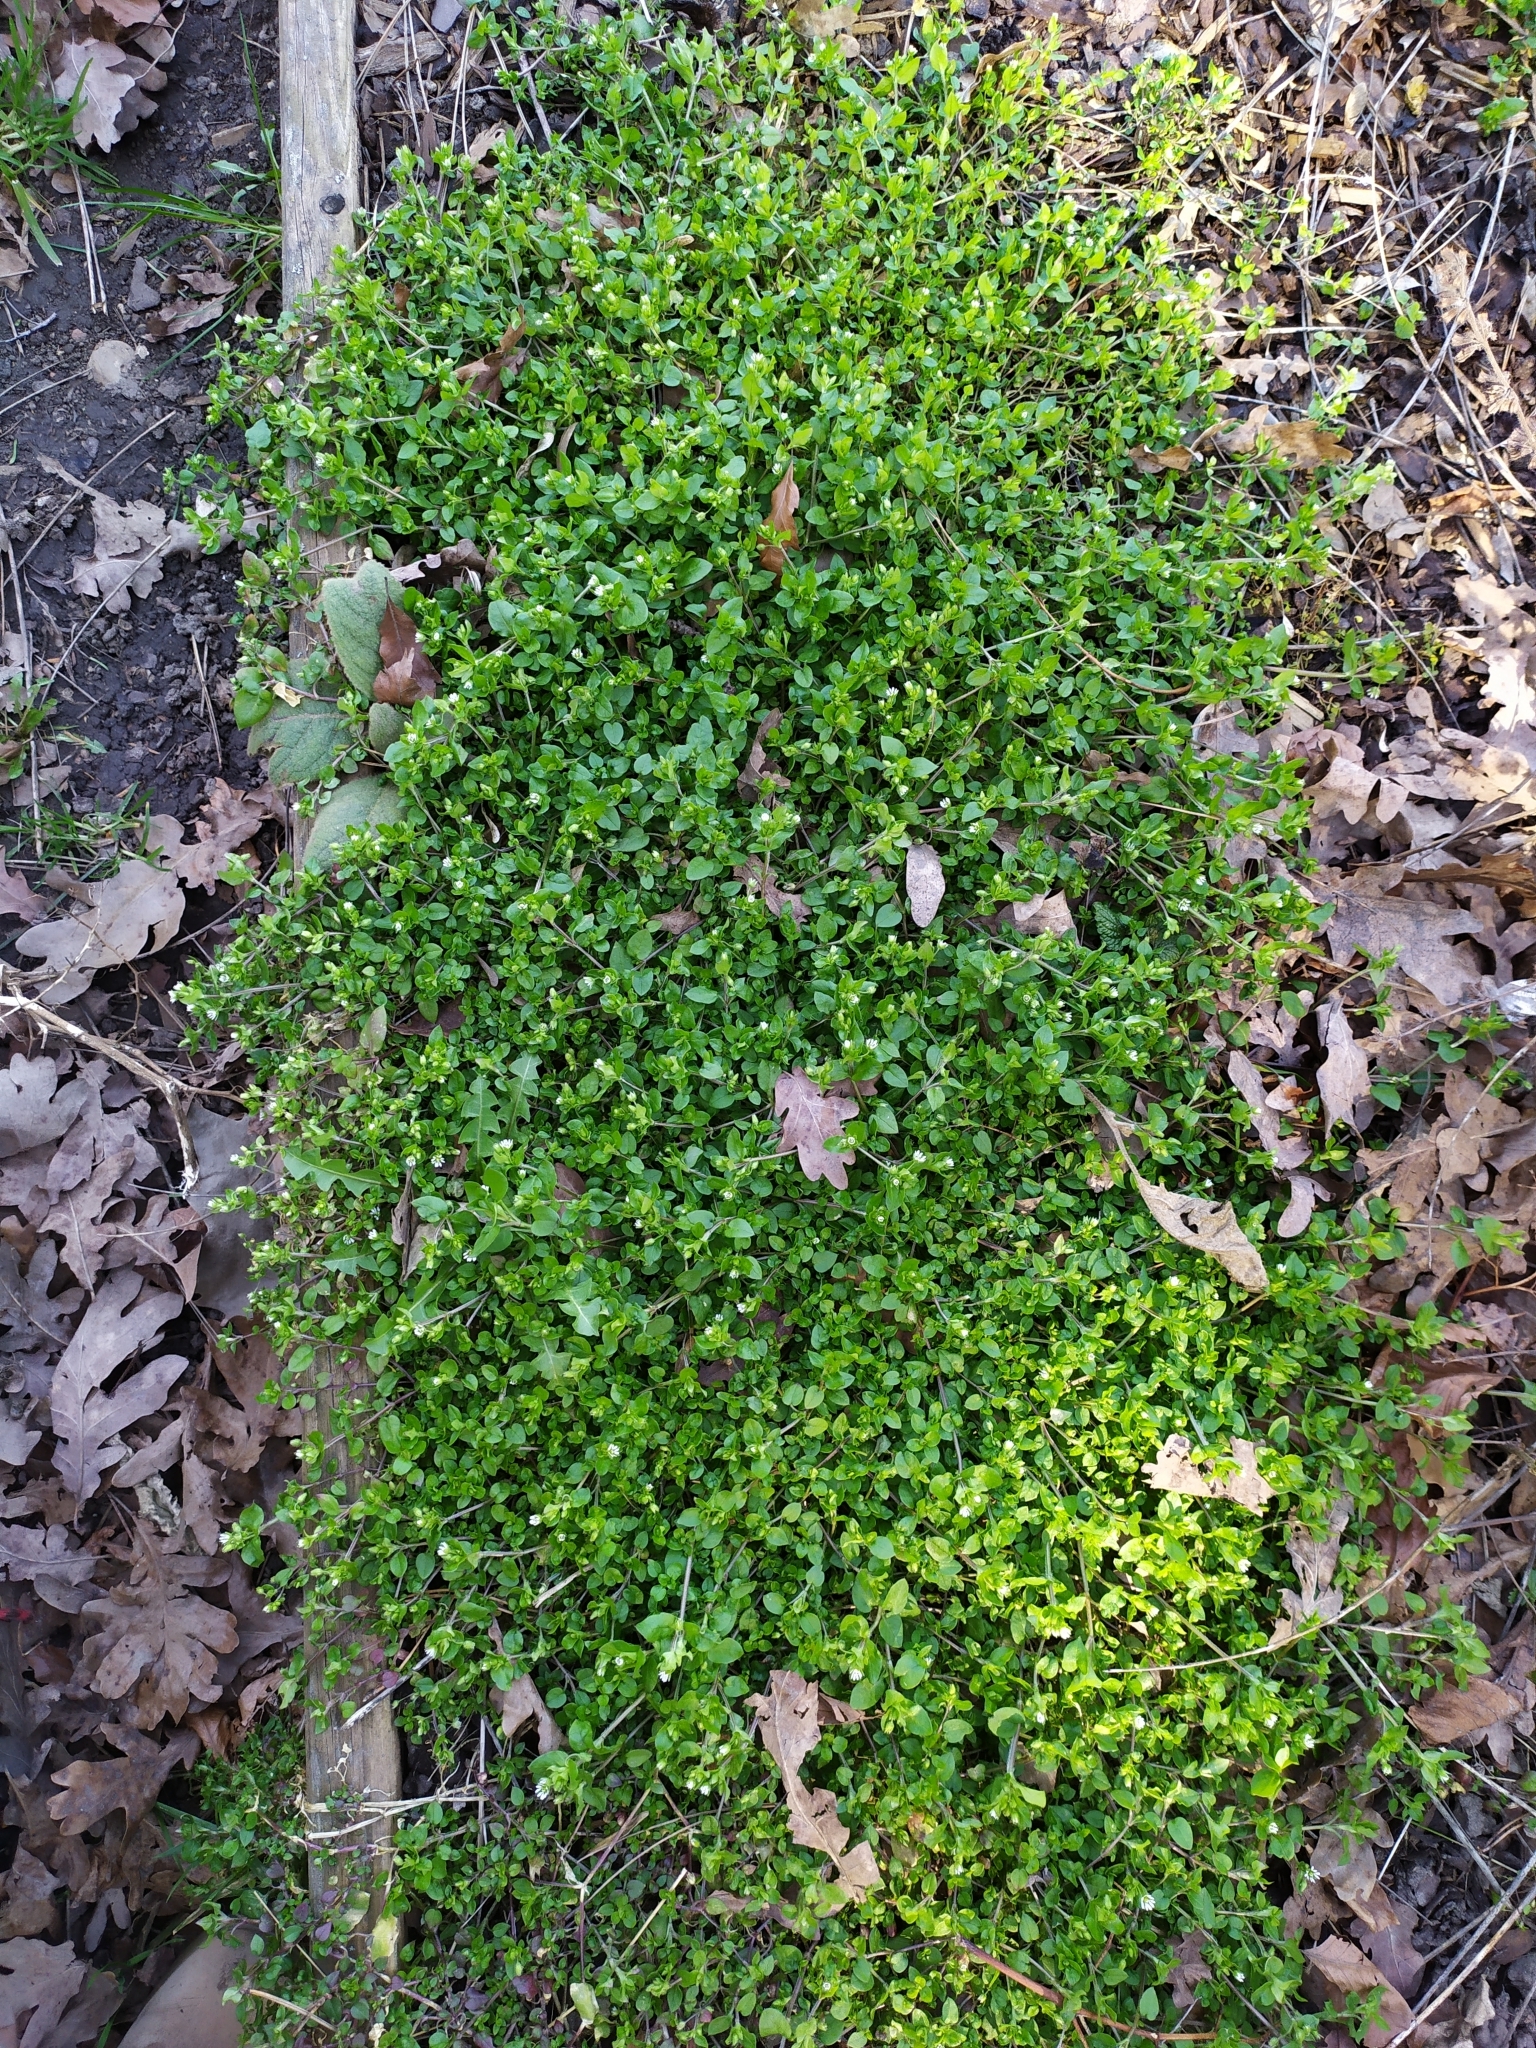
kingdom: Plantae
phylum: Tracheophyta
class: Magnoliopsida
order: Caryophyllales
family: Caryophyllaceae
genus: Stellaria
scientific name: Stellaria media
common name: Common chickweed
